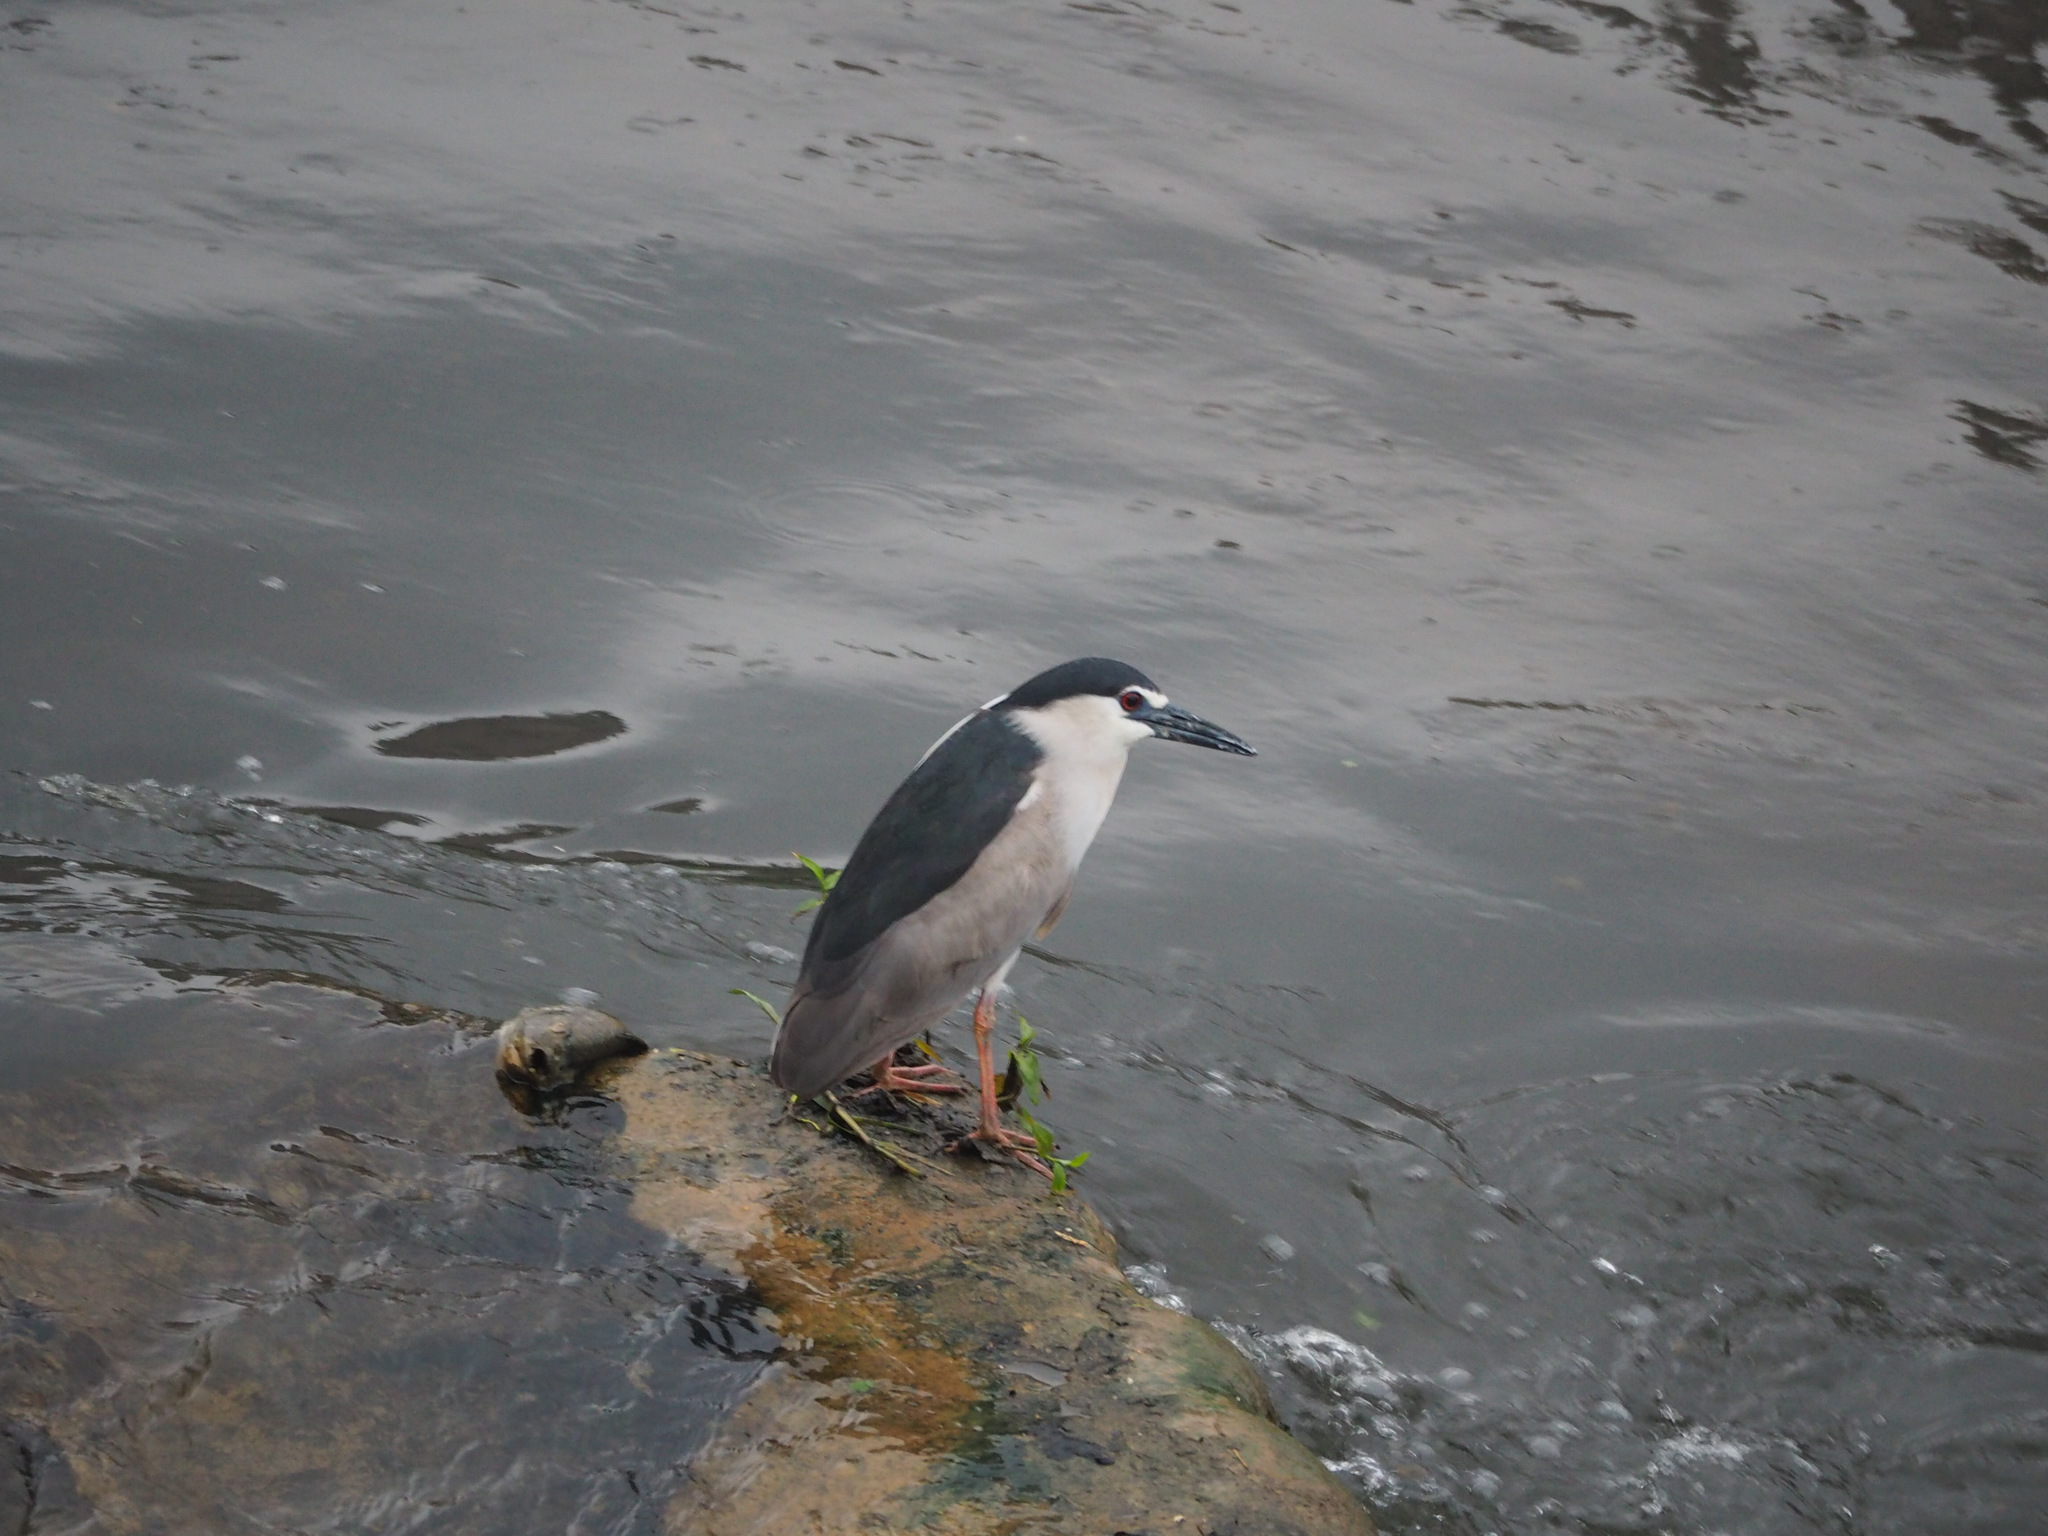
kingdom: Animalia
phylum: Chordata
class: Aves
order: Pelecaniformes
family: Ardeidae
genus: Nycticorax
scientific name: Nycticorax nycticorax
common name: Black-crowned night heron
